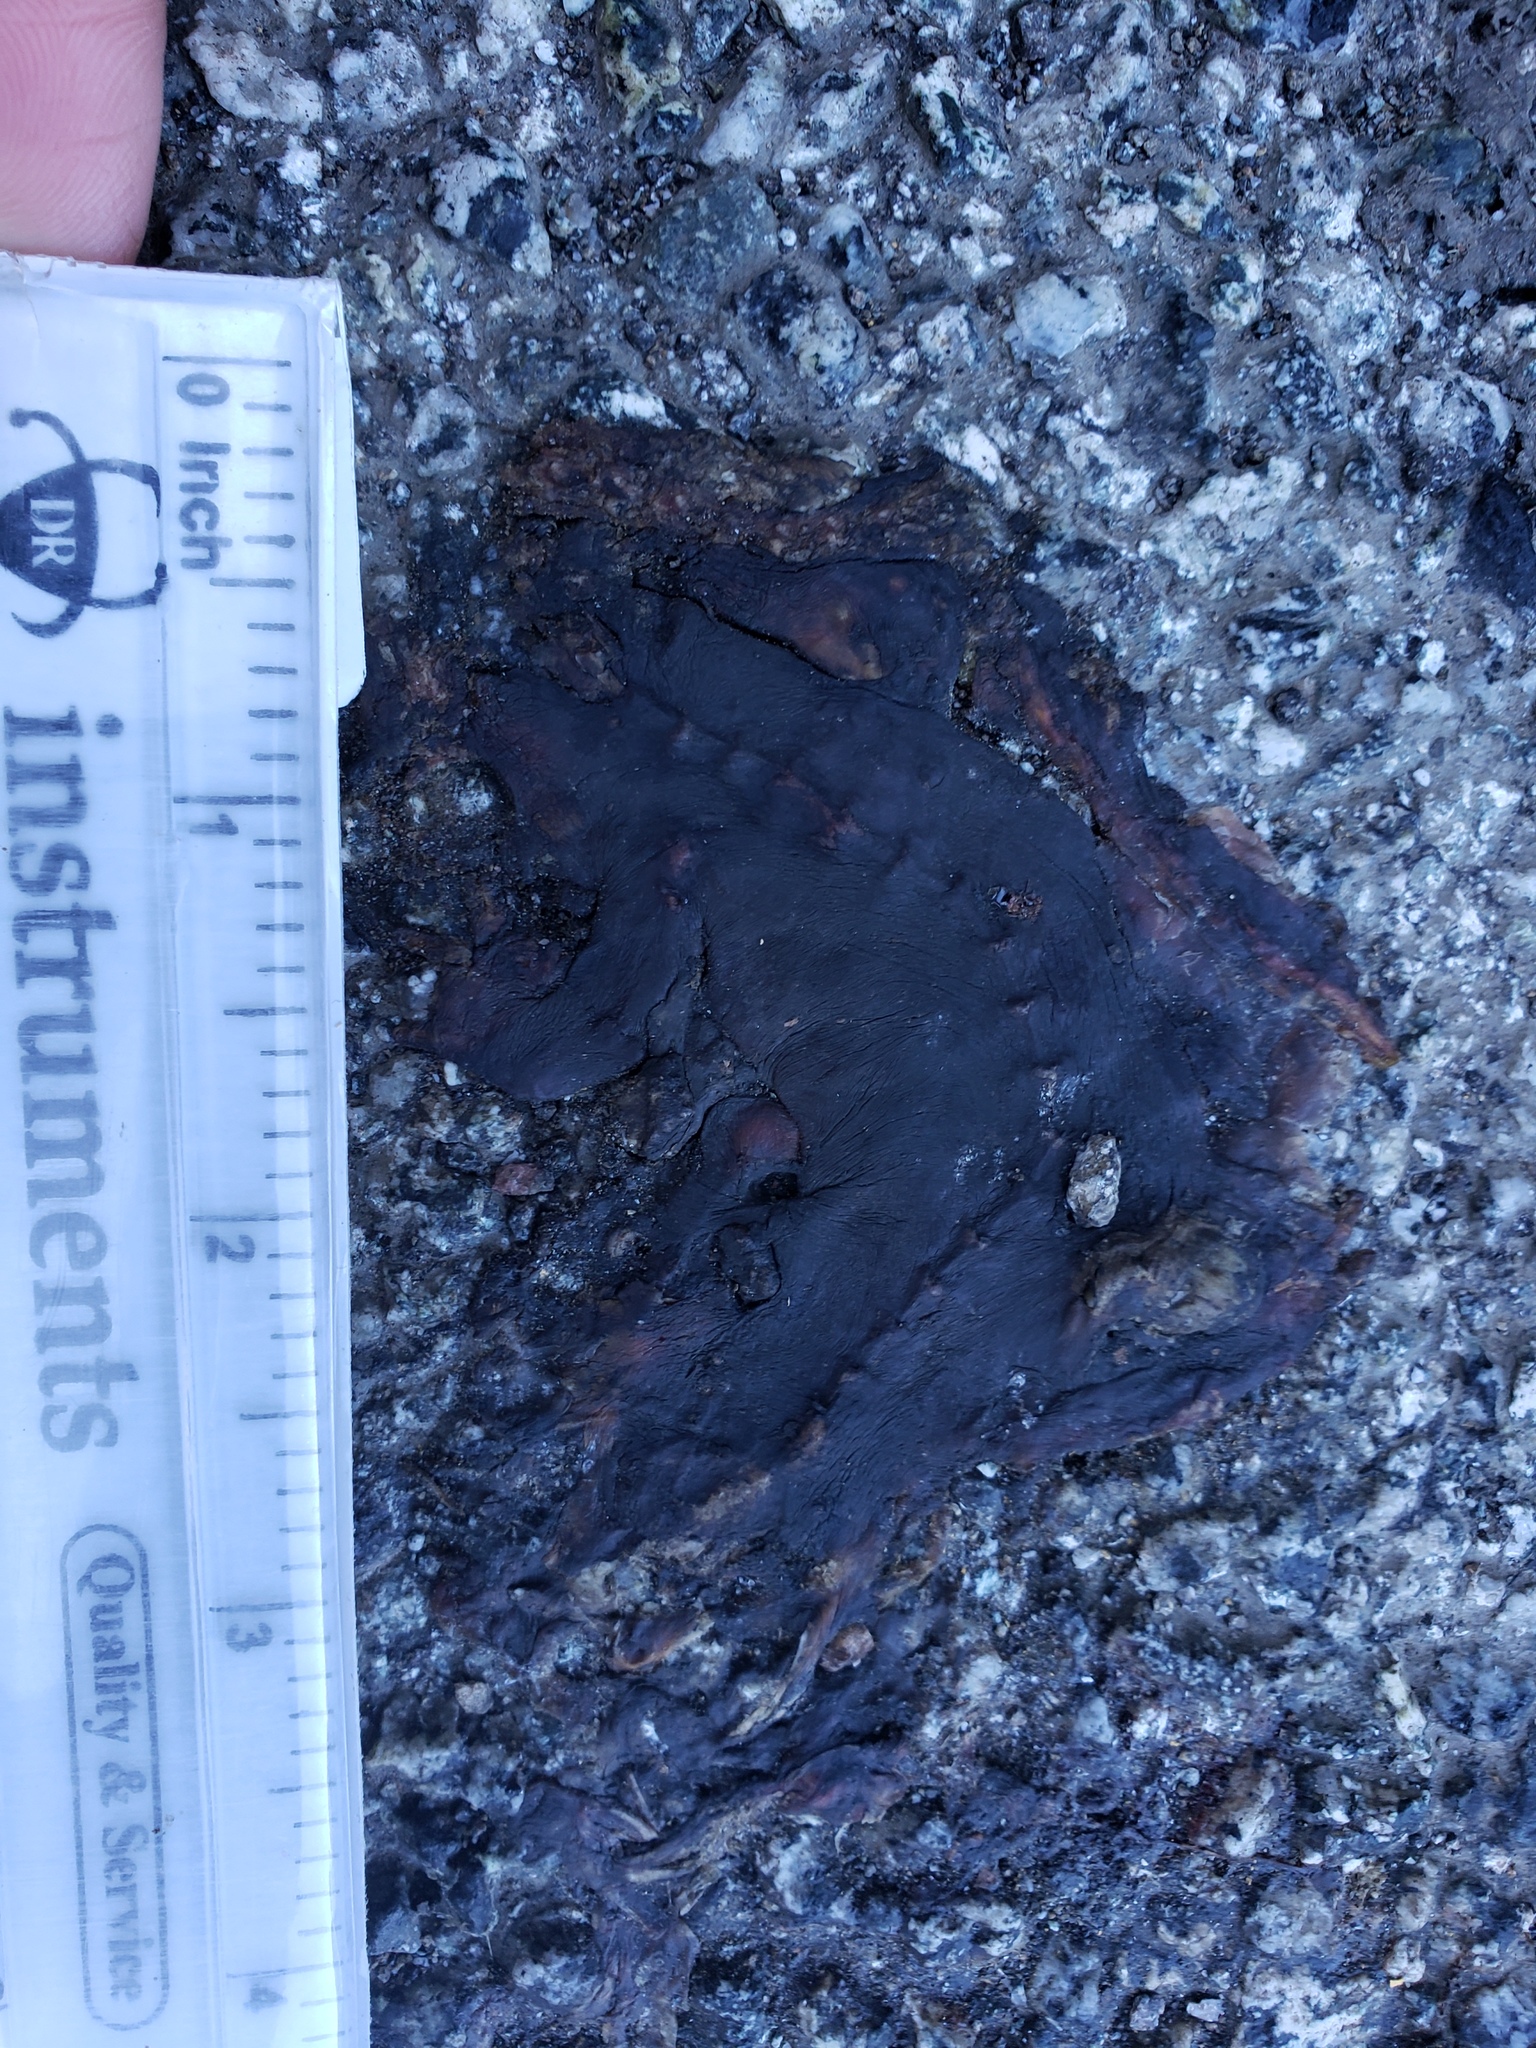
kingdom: Animalia
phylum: Chordata
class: Amphibia
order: Caudata
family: Salamandridae
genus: Taricha
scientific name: Taricha
